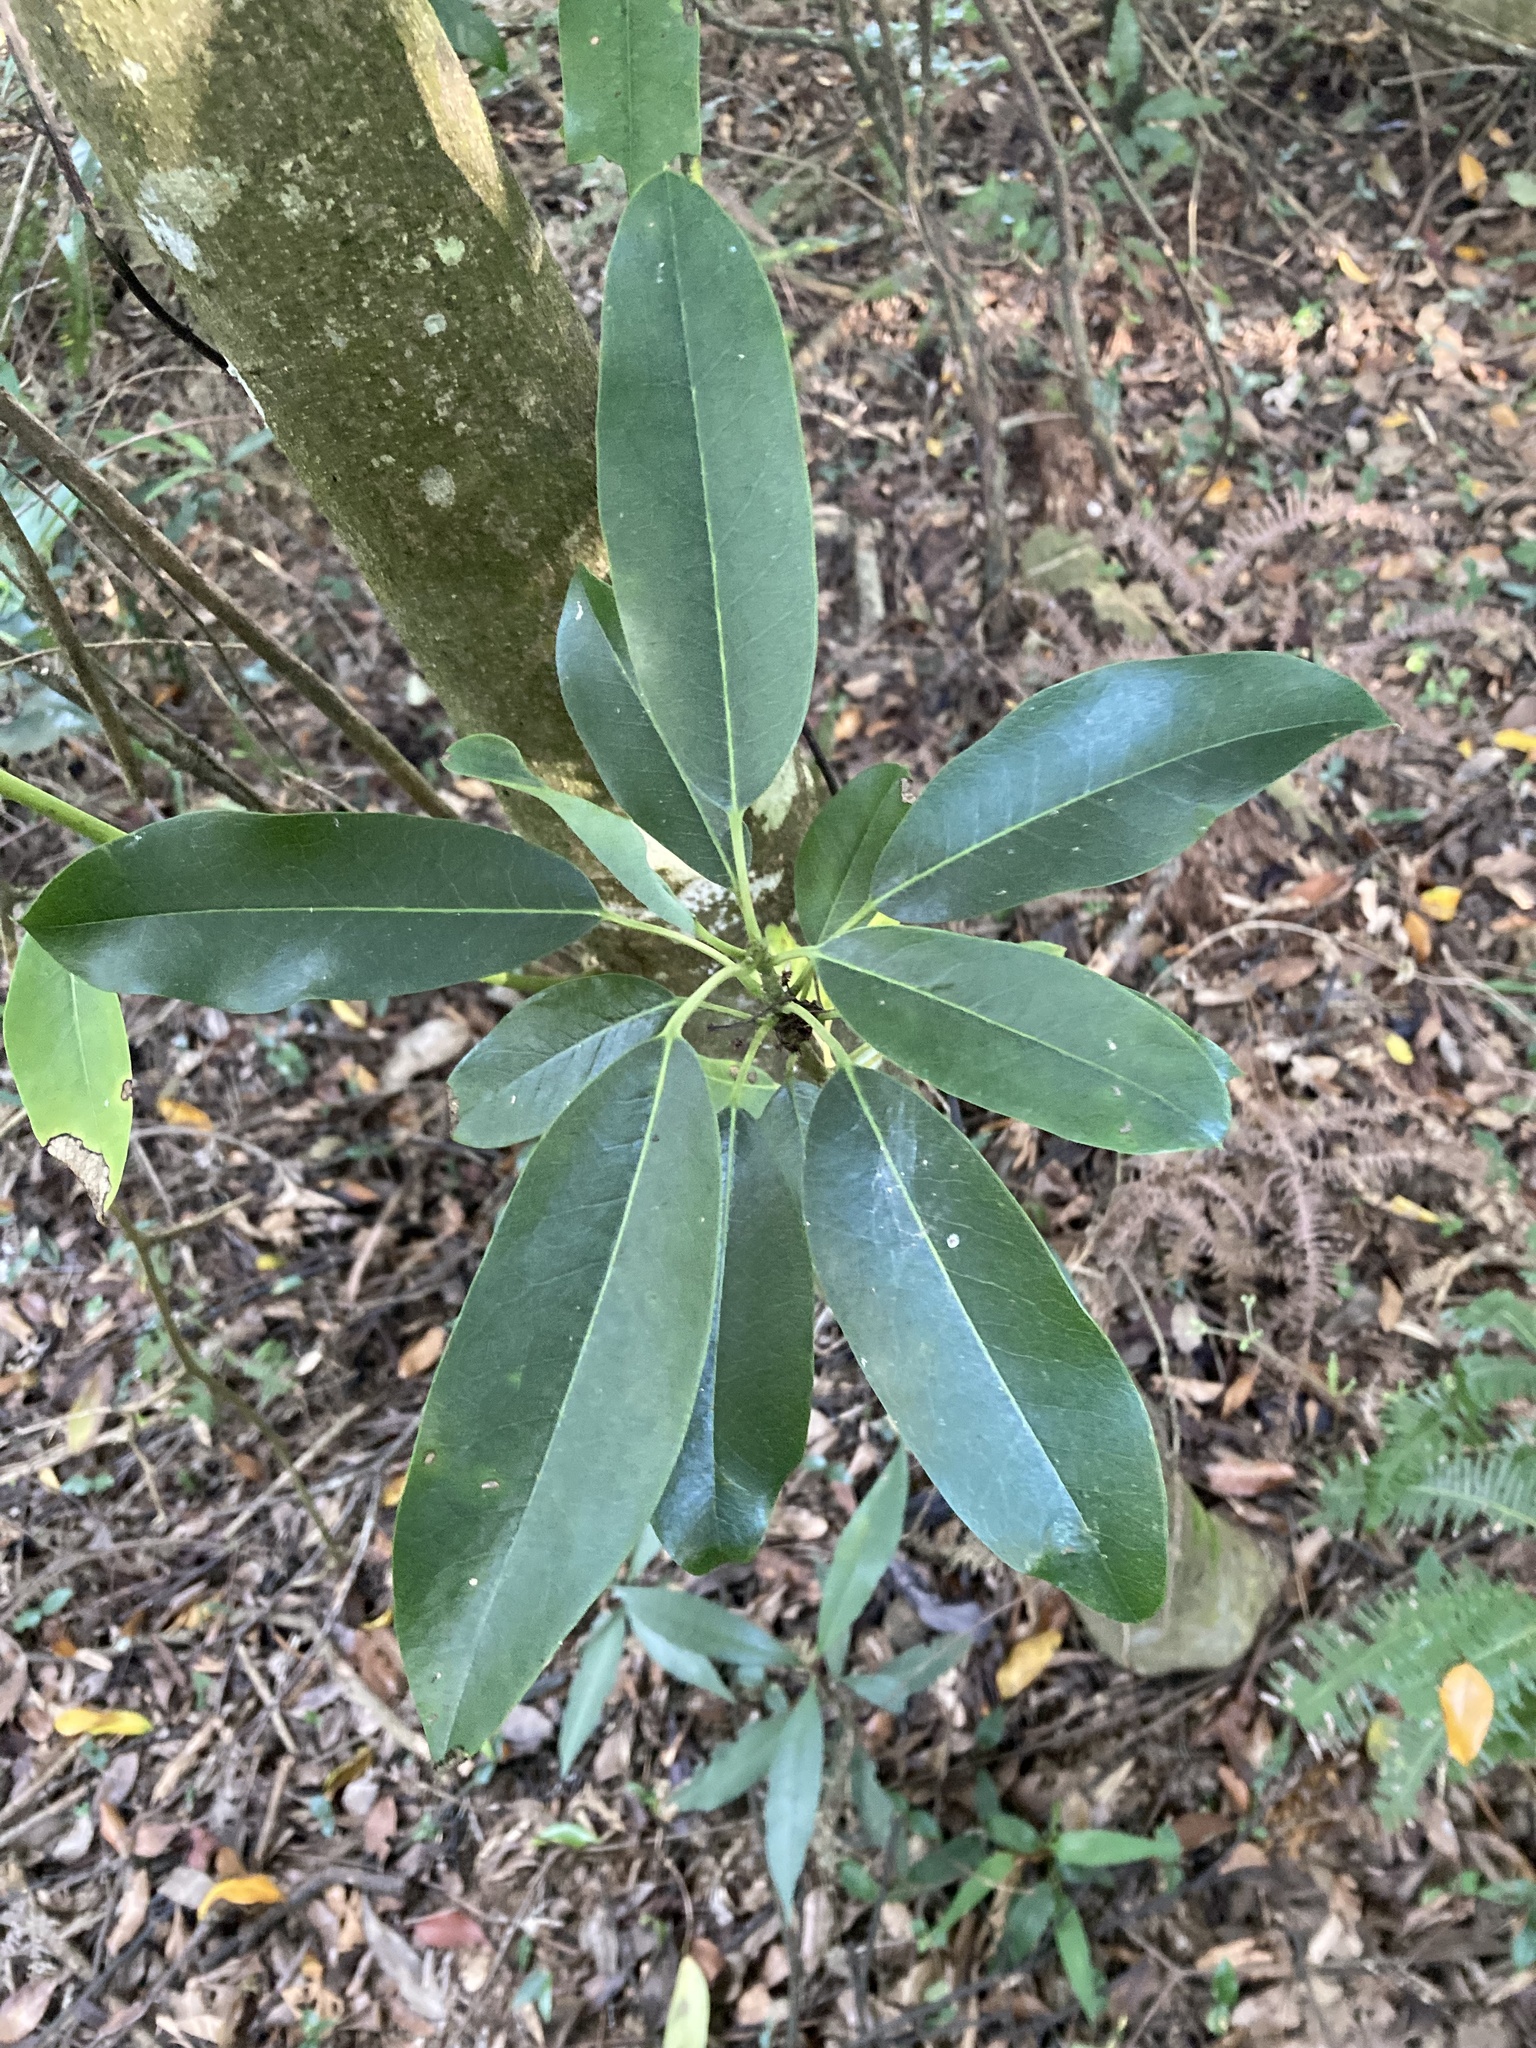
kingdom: Plantae
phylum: Tracheophyta
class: Magnoliopsida
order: Saxifragales
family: Daphniphyllaceae
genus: Daphniphyllum
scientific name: Daphniphyllum pentandrum
